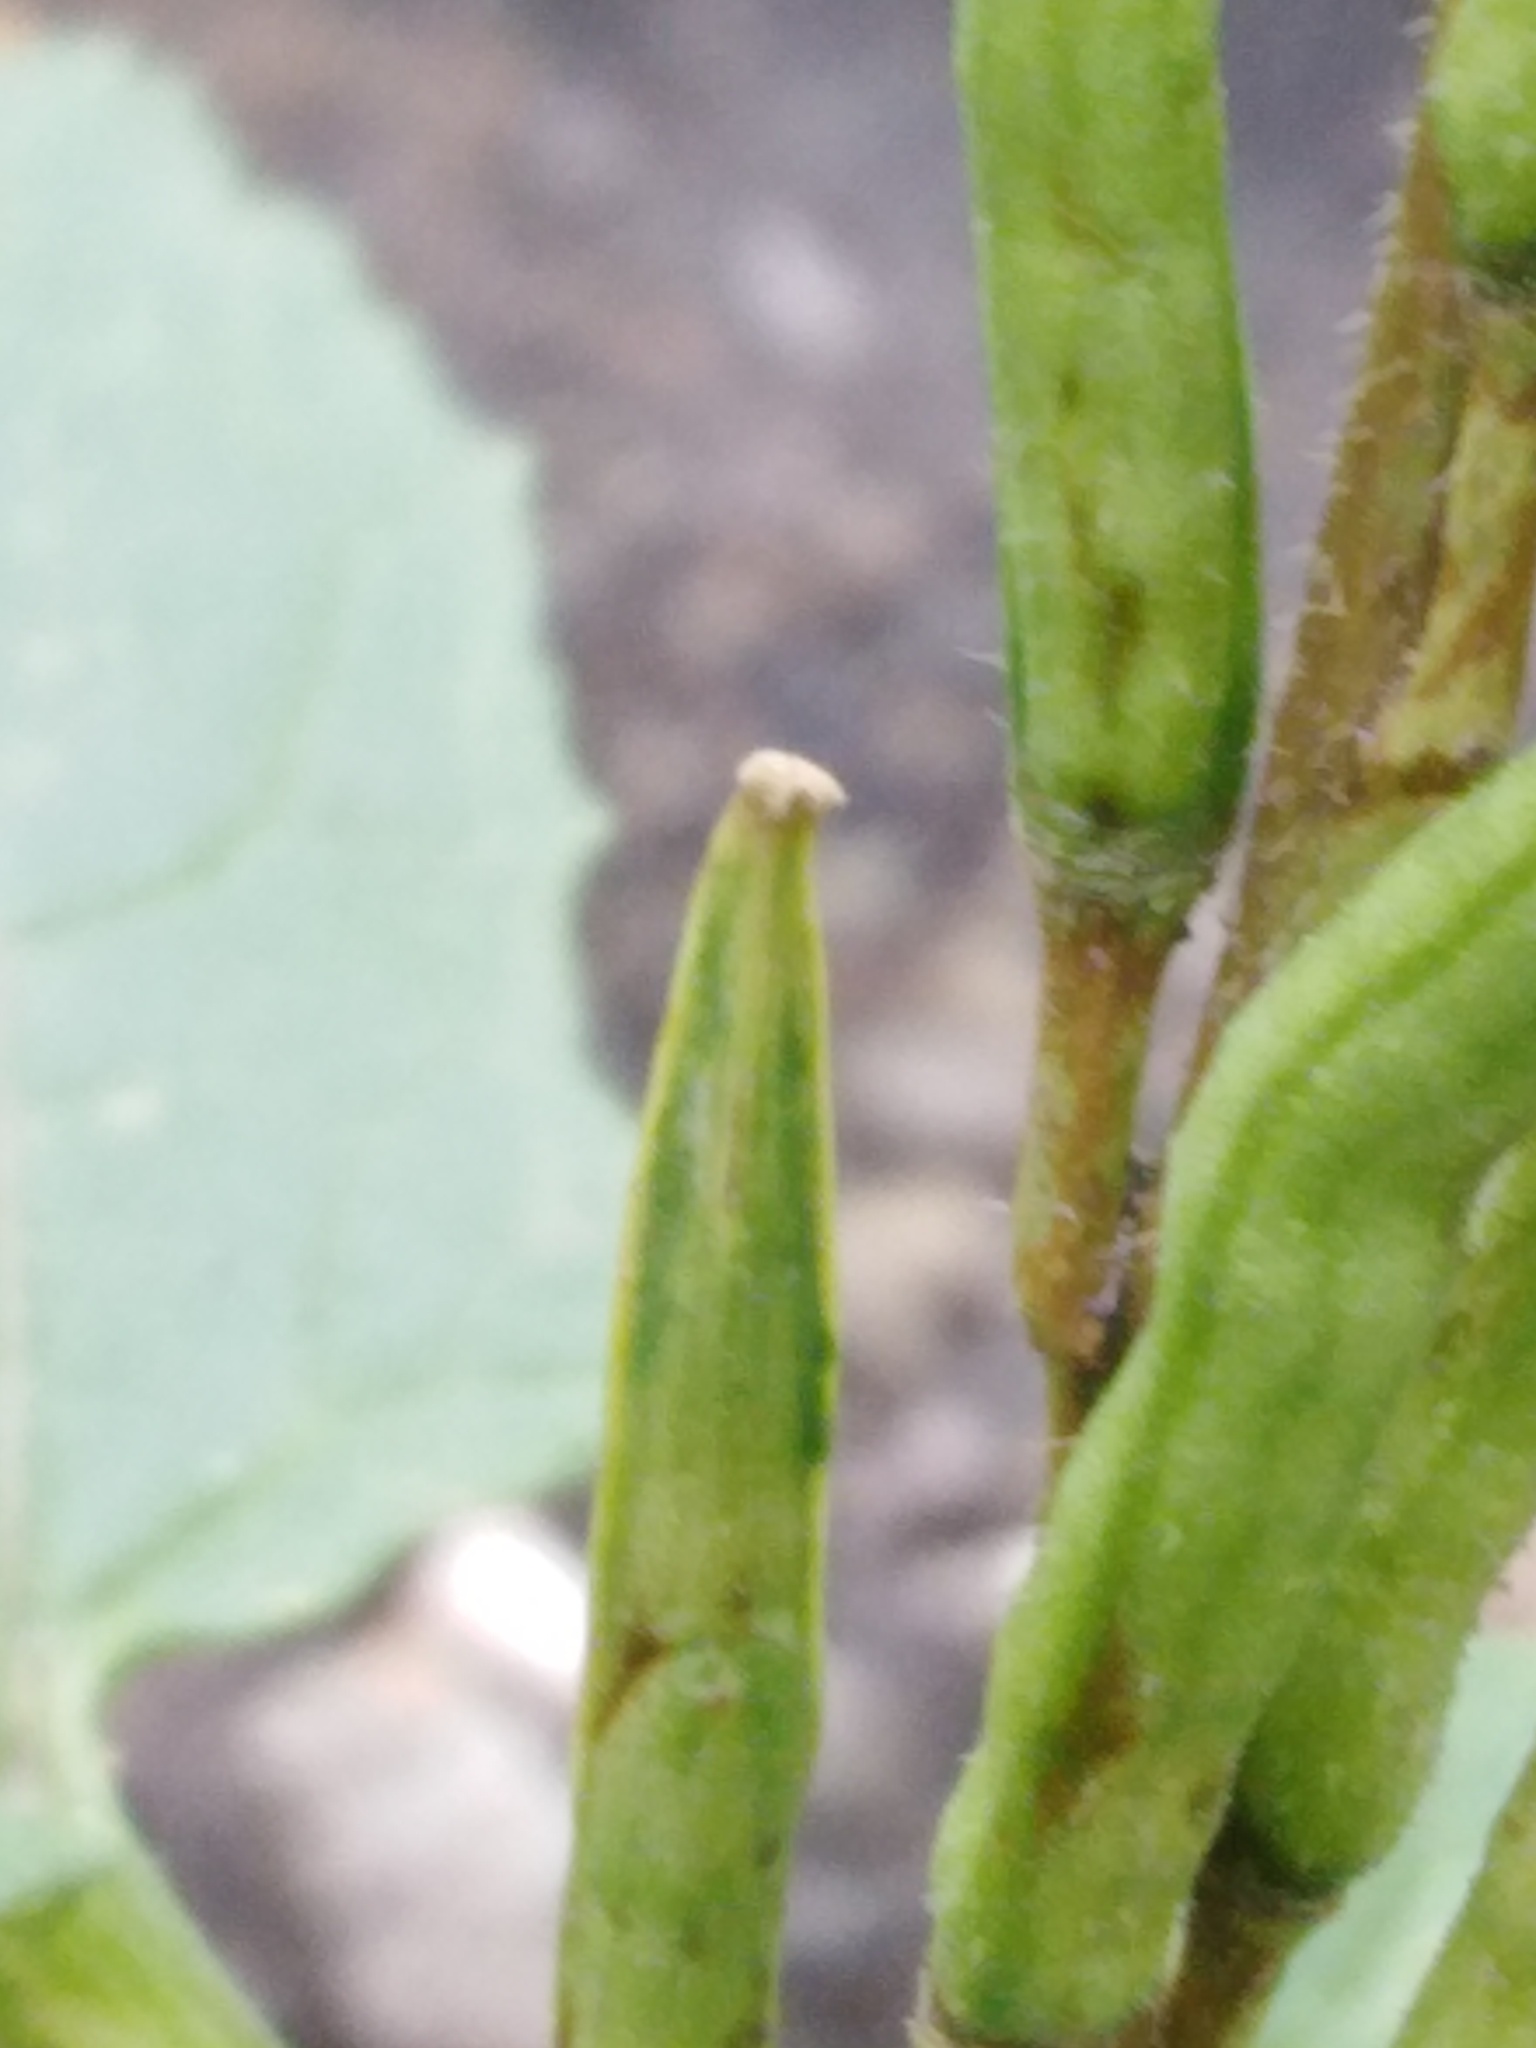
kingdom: Plantae
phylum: Tracheophyta
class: Magnoliopsida
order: Brassicales
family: Brassicaceae
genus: Sinapis
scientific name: Sinapis arvensis
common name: Charlock
